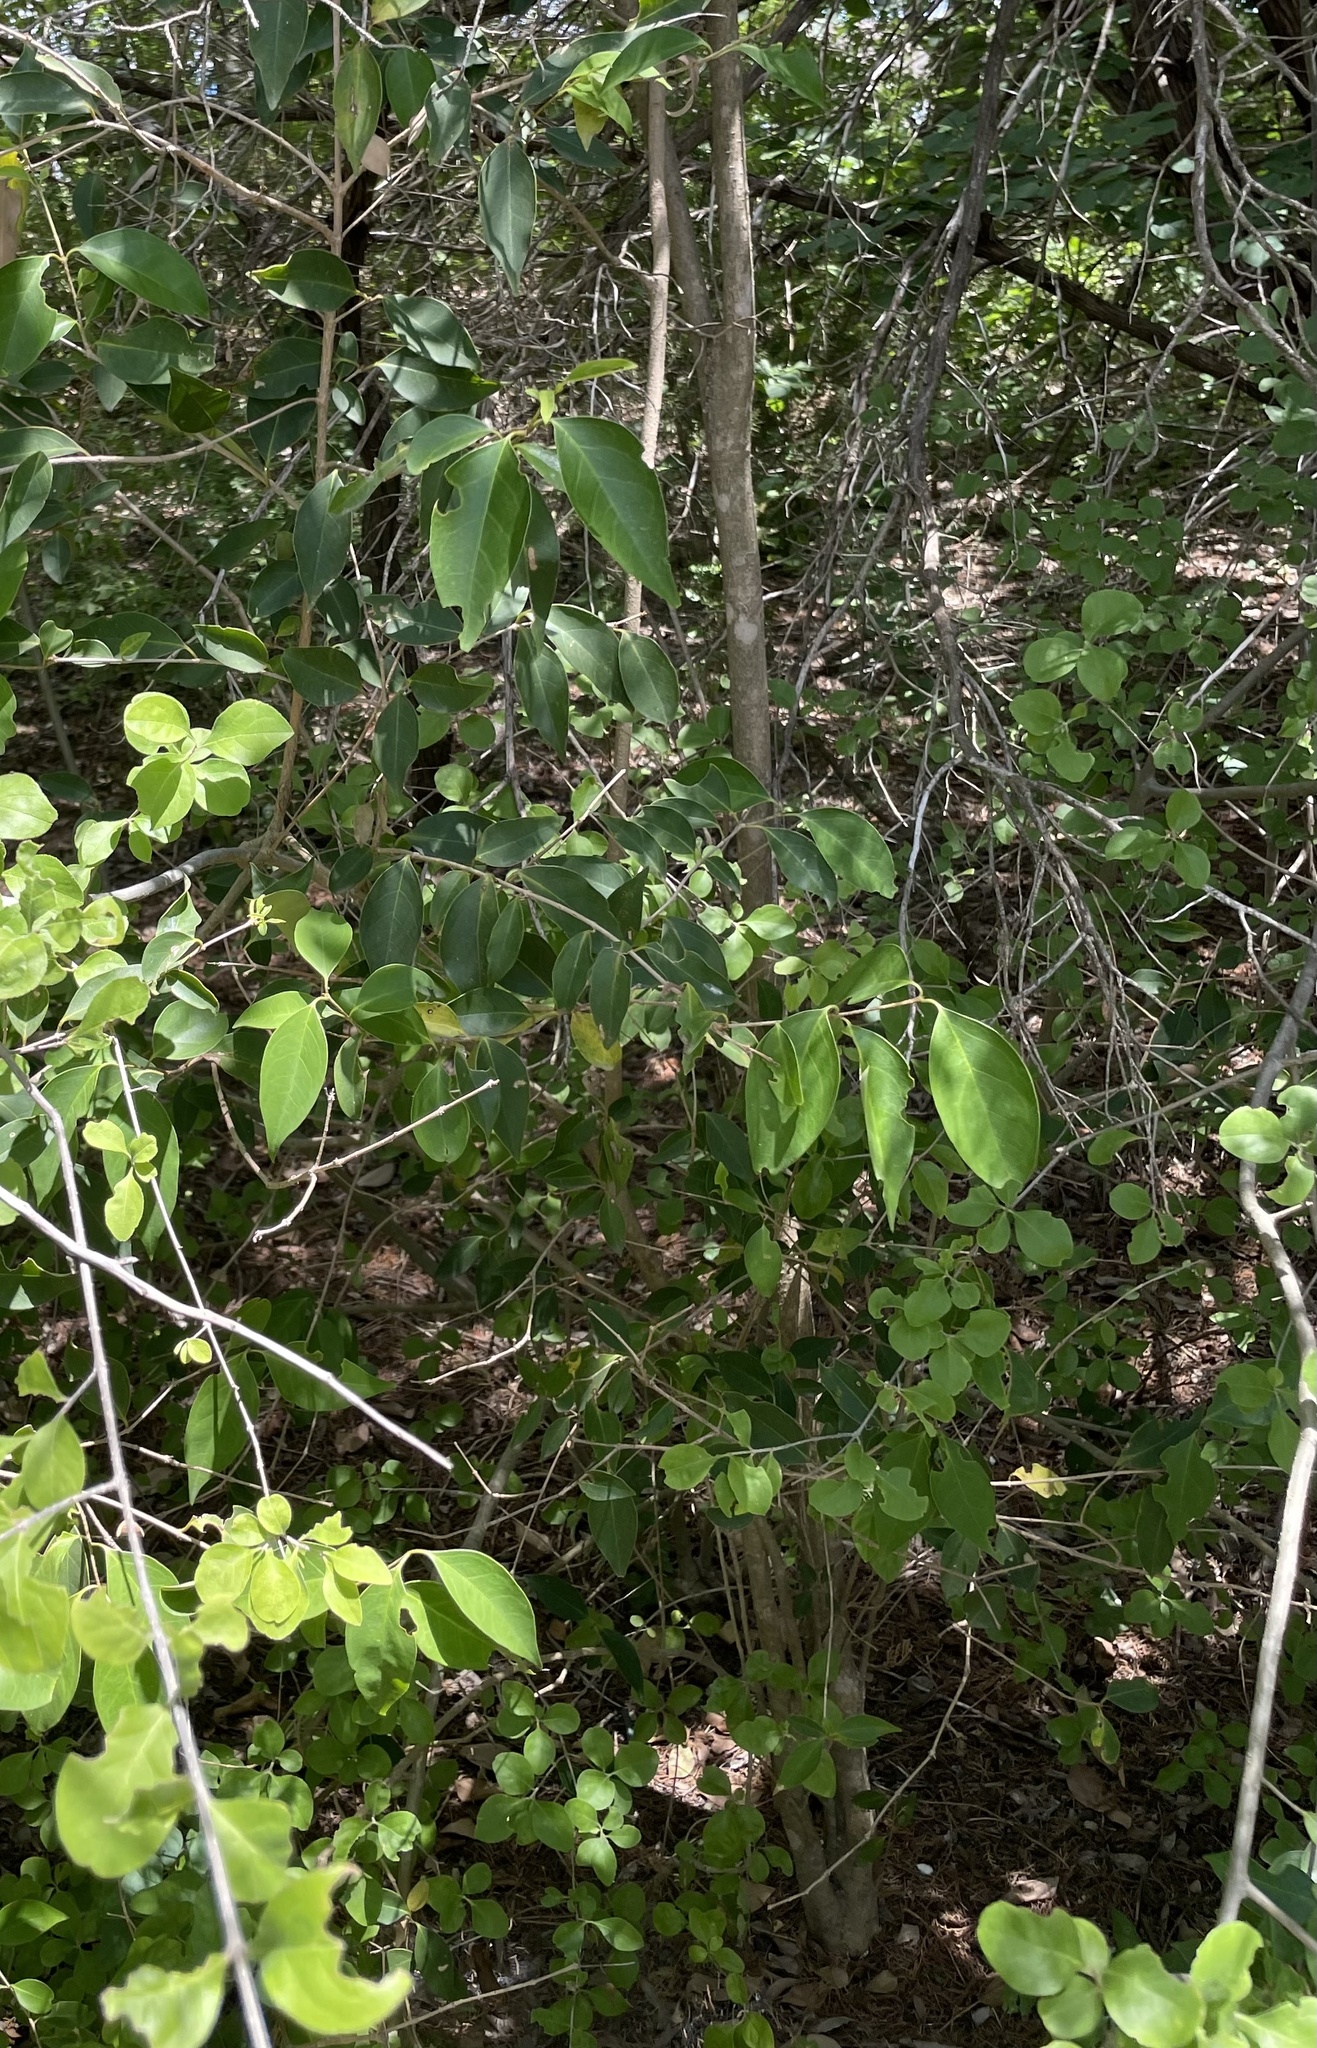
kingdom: Plantae
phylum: Tracheophyta
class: Magnoliopsida
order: Lamiales
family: Oleaceae
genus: Ligustrum
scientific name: Ligustrum lucidum
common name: Glossy privet
